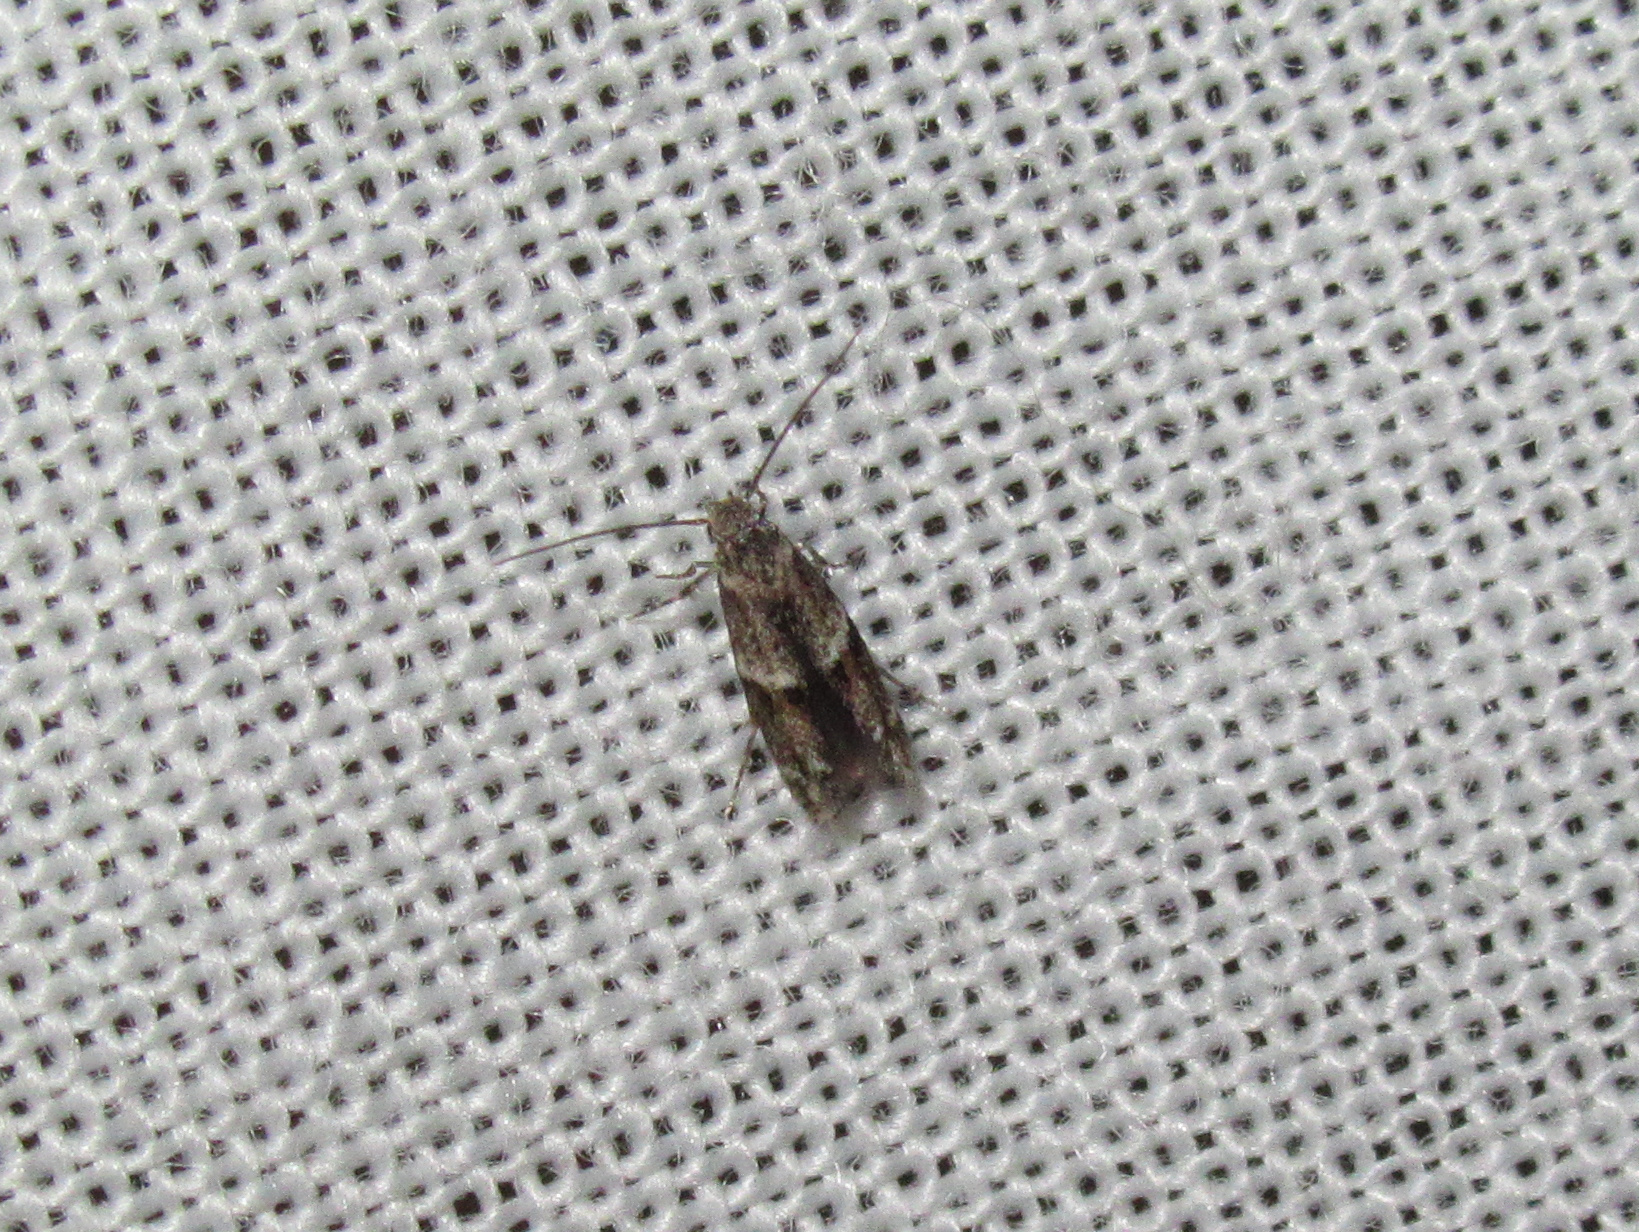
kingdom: Animalia
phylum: Arthropoda
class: Insecta
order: Lepidoptera
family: Elachistidae
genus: Elachista
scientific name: Elachista archaeonoma
